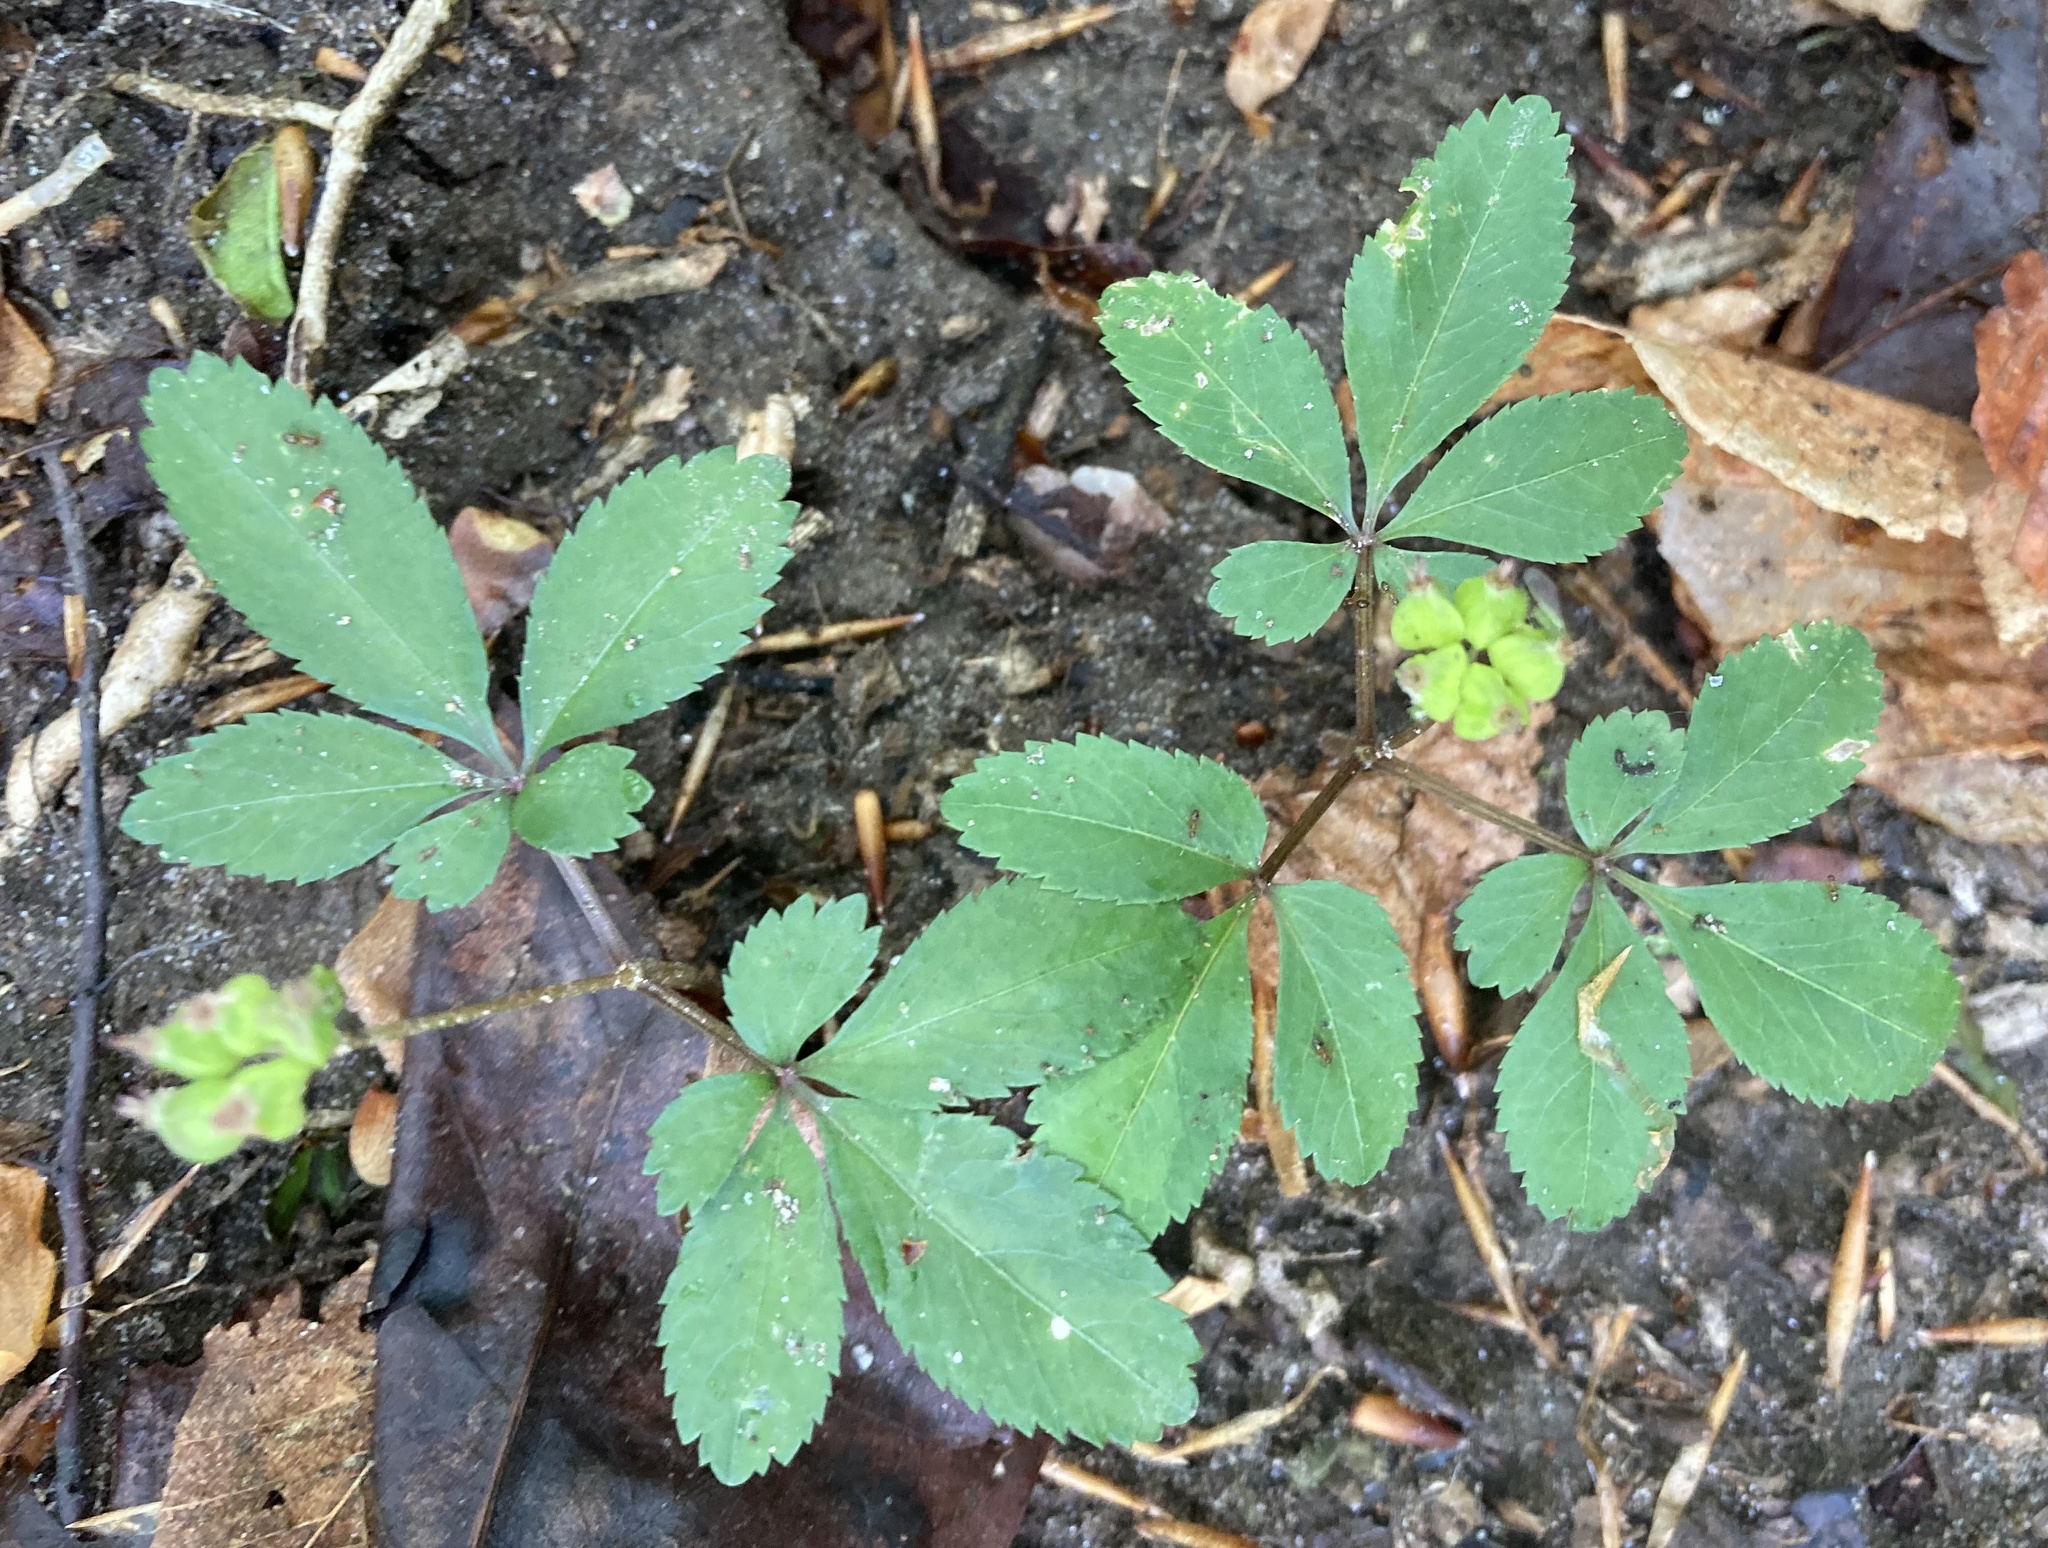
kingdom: Plantae
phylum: Tracheophyta
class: Magnoliopsida
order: Apiales
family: Araliaceae
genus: Panax
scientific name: Panax trifolius
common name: Dwarf ginseng
